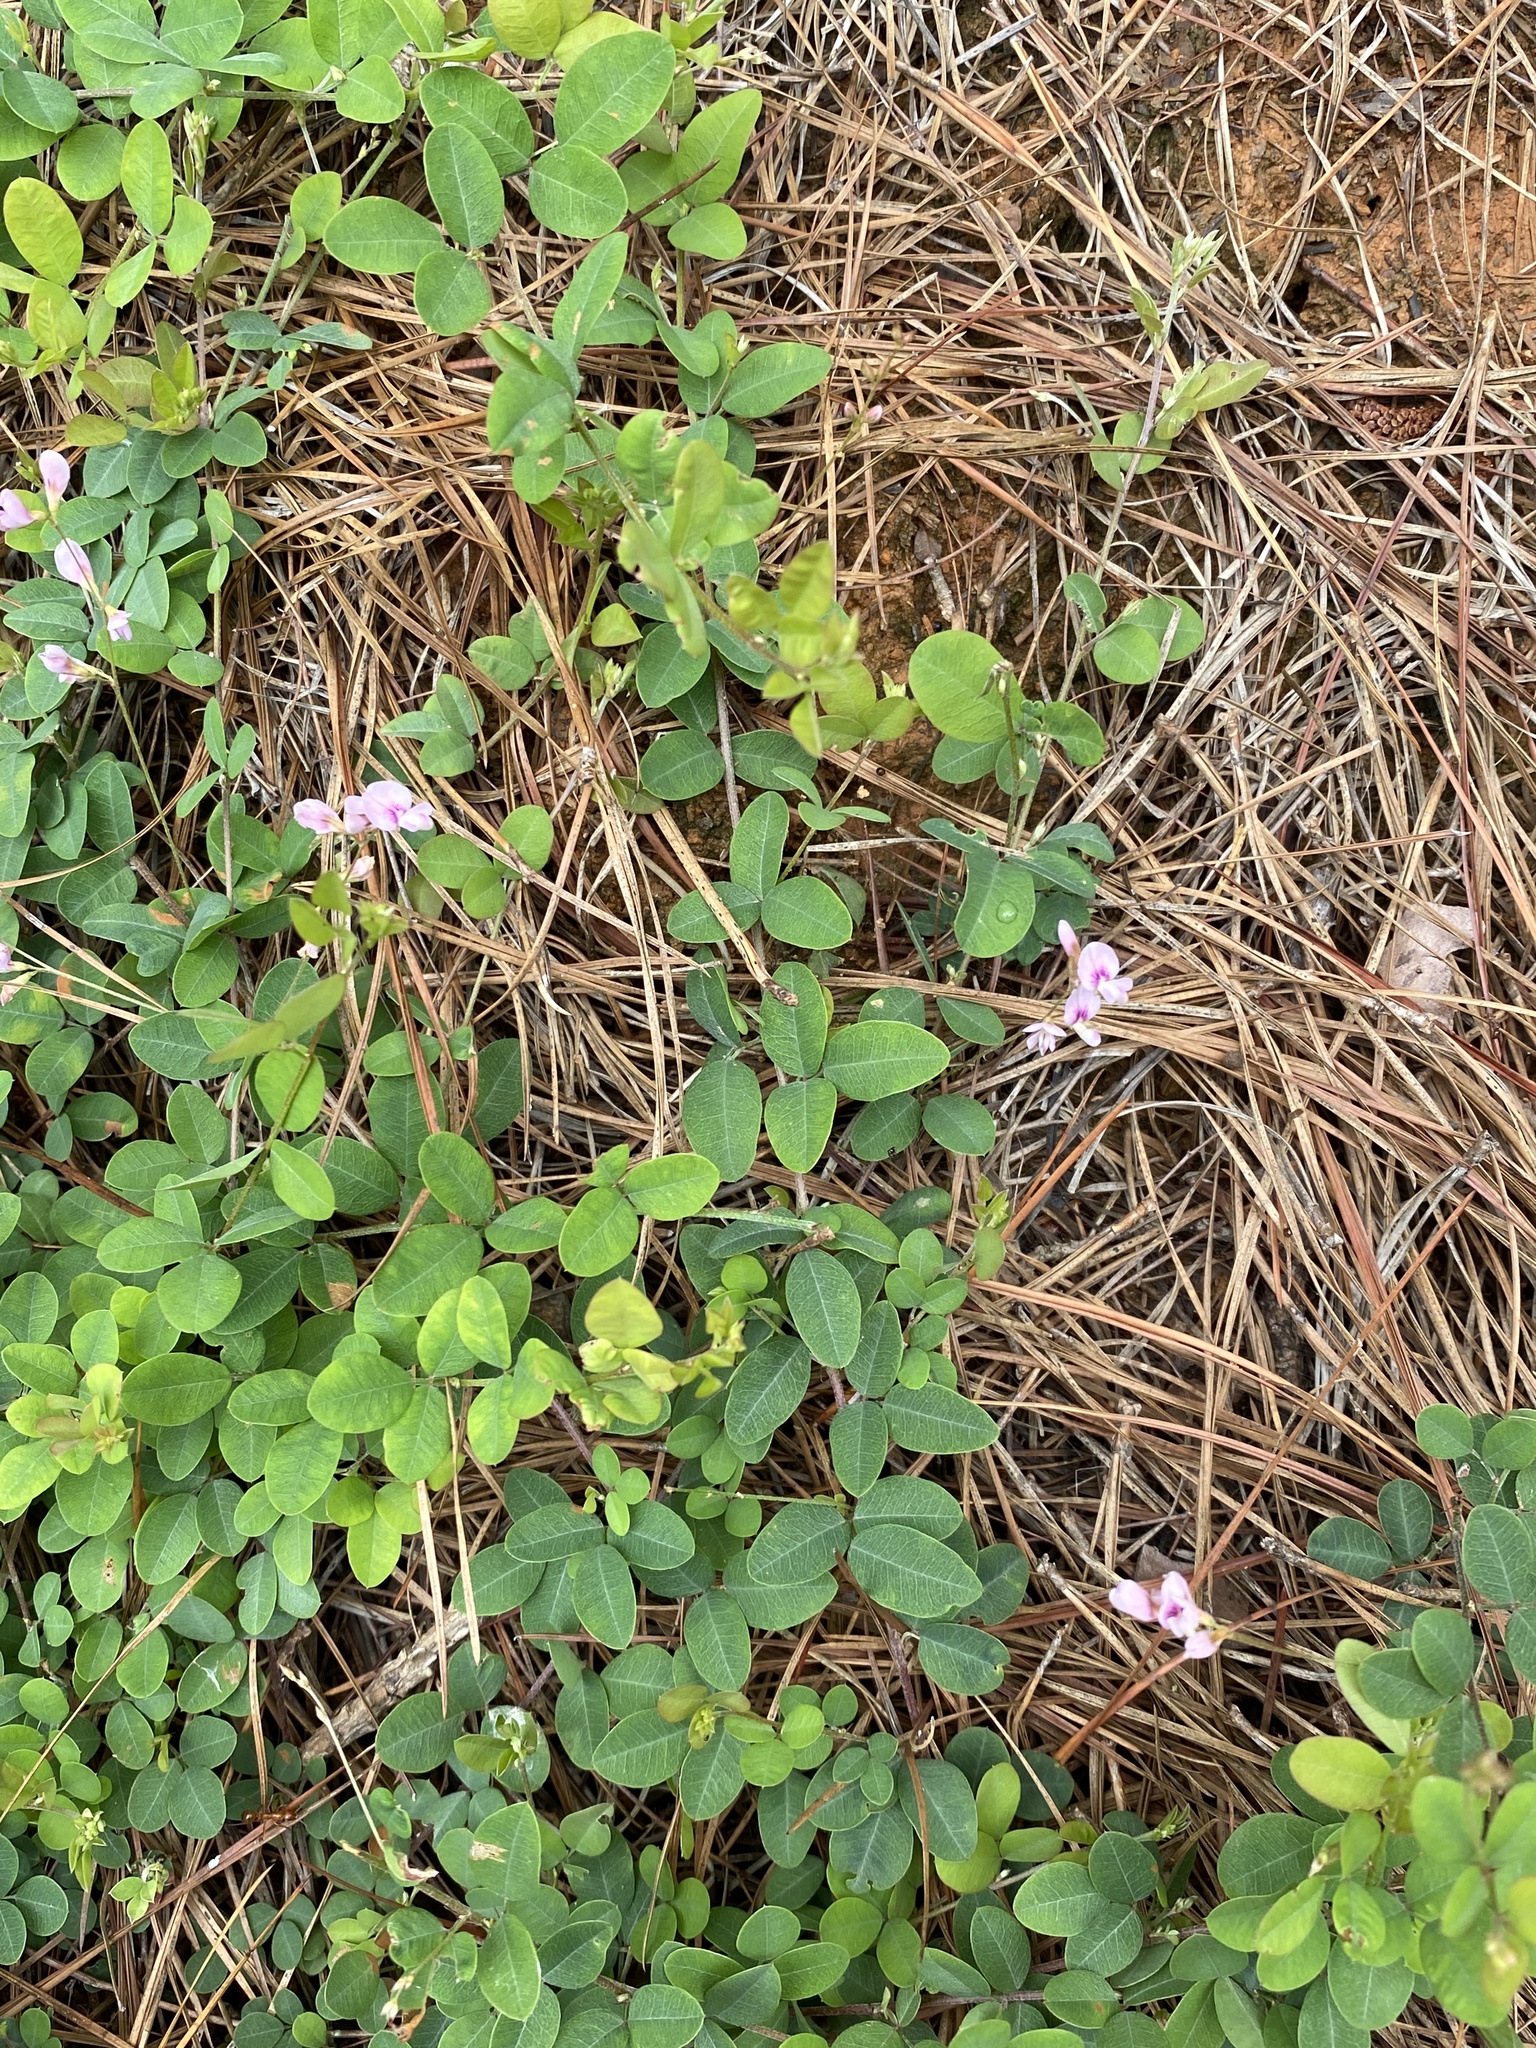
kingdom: Plantae
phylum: Tracheophyta
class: Magnoliopsida
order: Fabales
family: Fabaceae
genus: Lespedeza
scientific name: Lespedeza procumbens
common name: Downy trailing bush-clover
